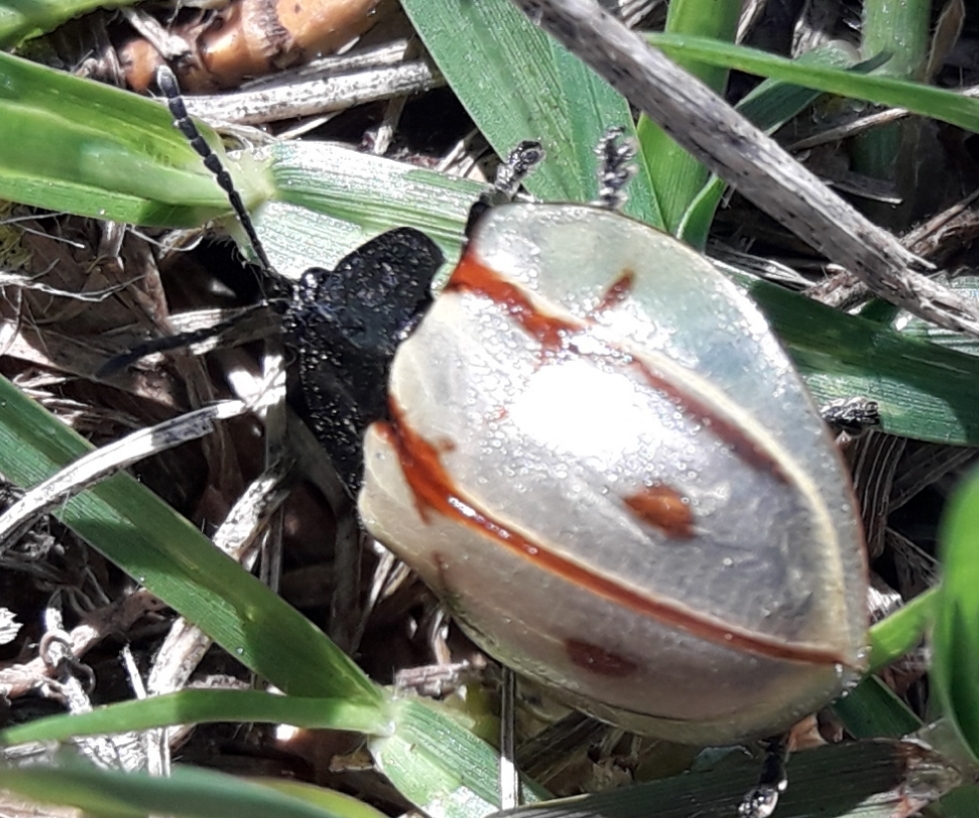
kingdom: Animalia
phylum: Arthropoda
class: Insecta
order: Coleoptera
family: Chrysomelidae
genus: Cyrtonota
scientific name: Cyrtonota dissecta
